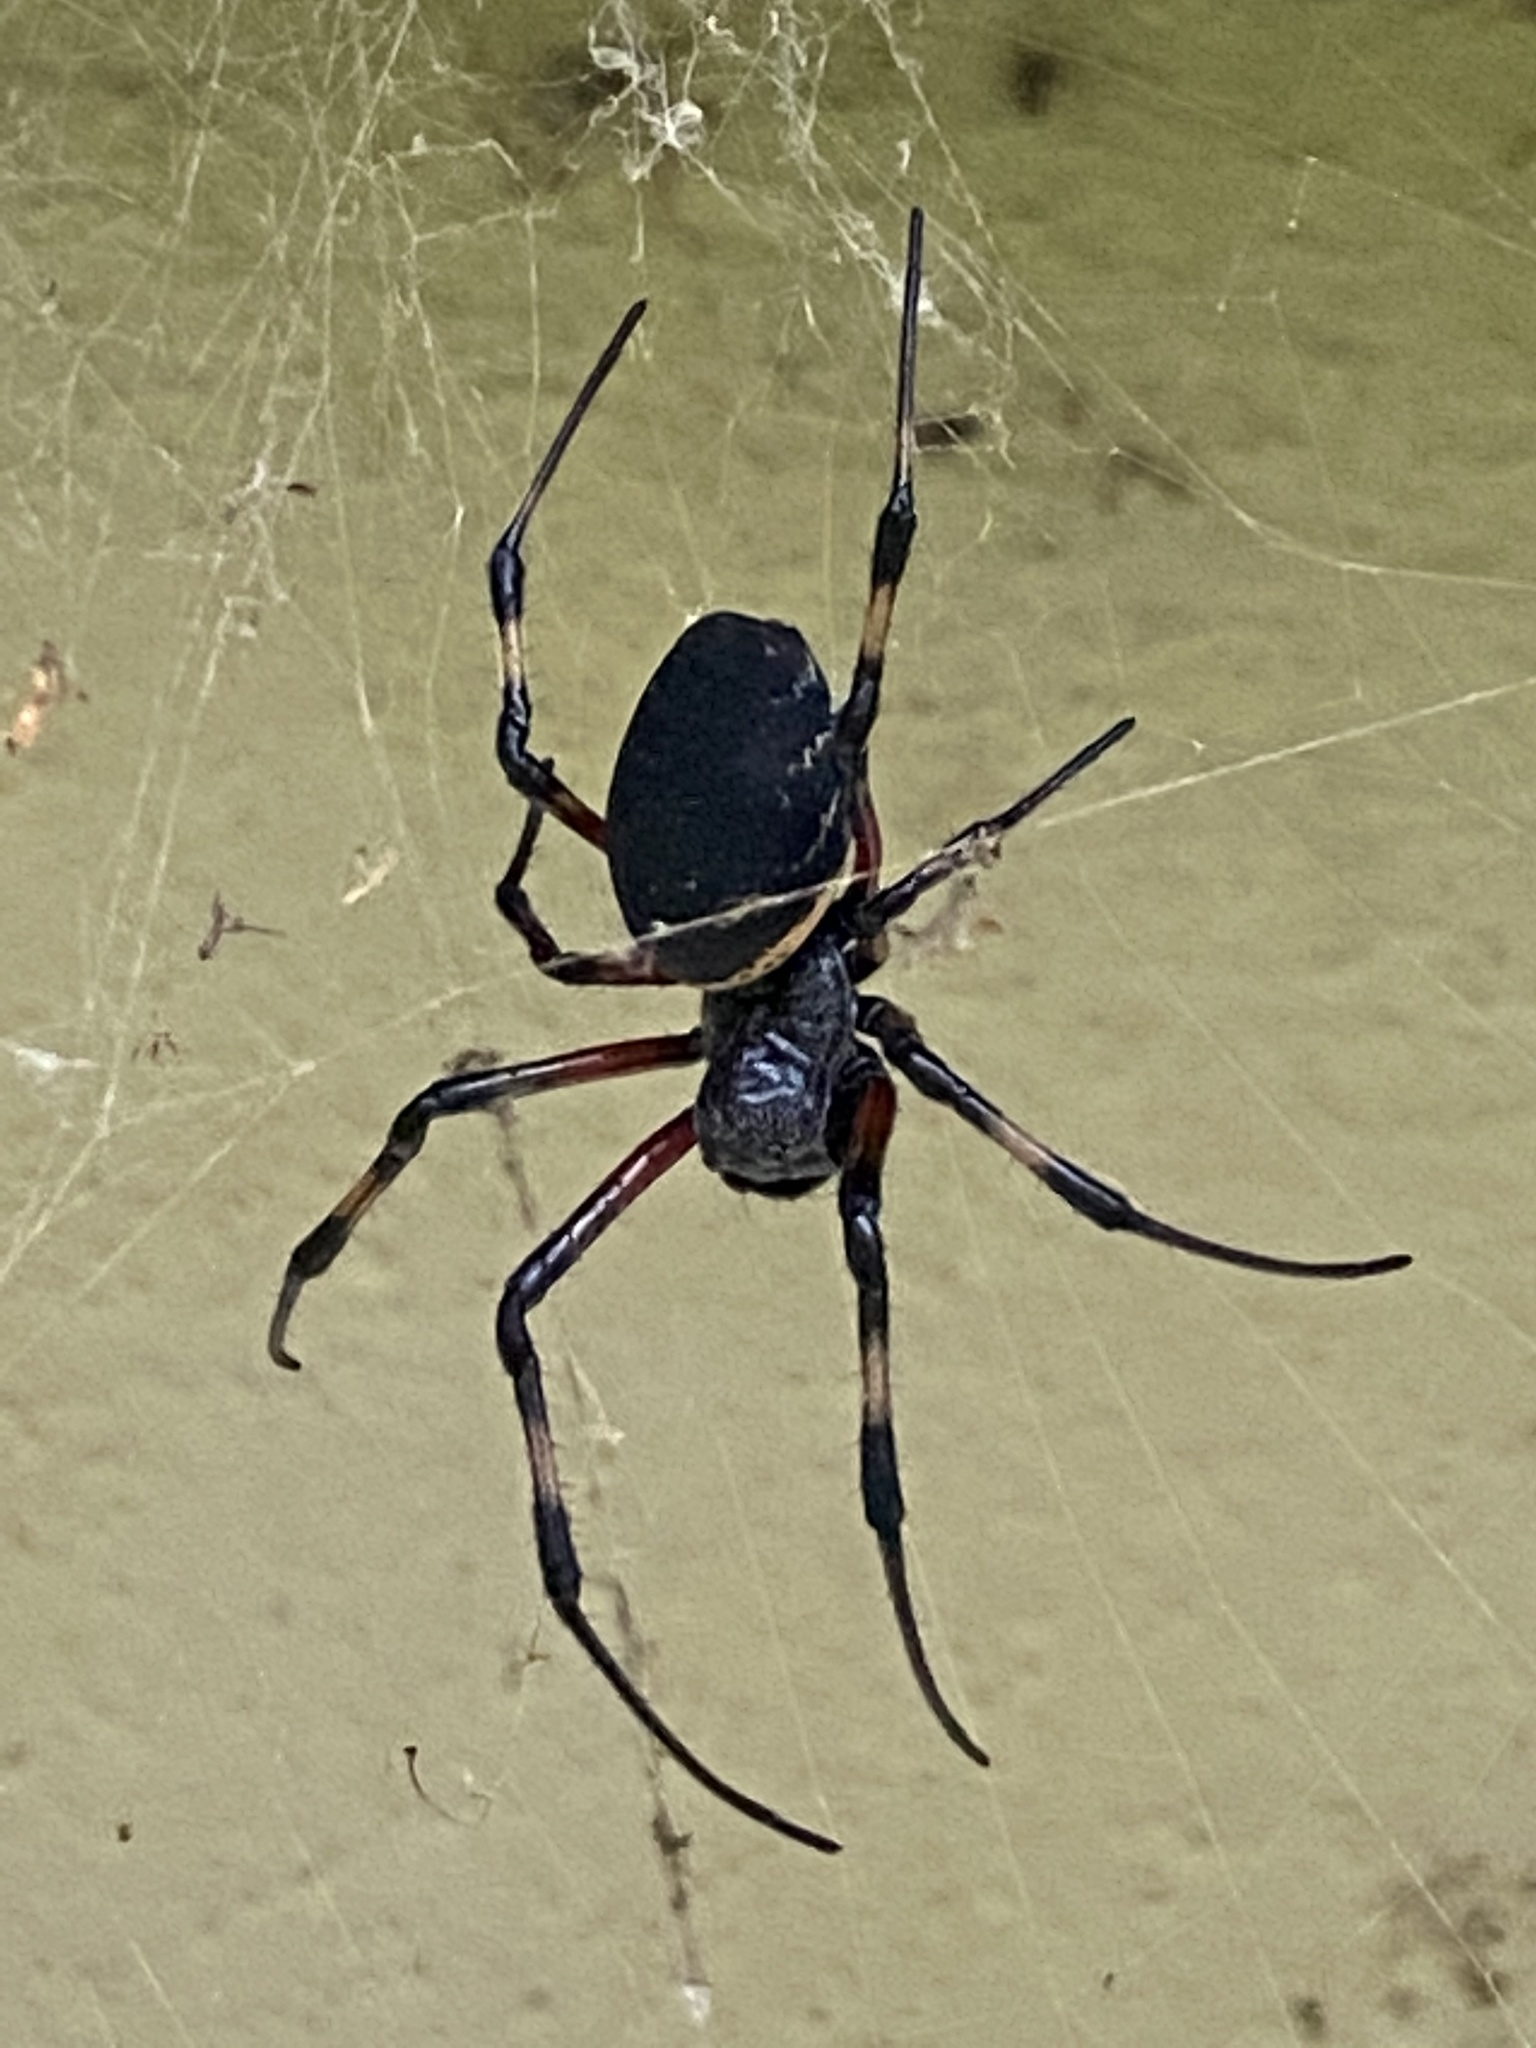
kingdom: Animalia
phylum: Arthropoda
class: Arachnida
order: Araneae
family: Araneidae
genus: Nephilingis
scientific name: Nephilingis cruentata
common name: African hermit spider
